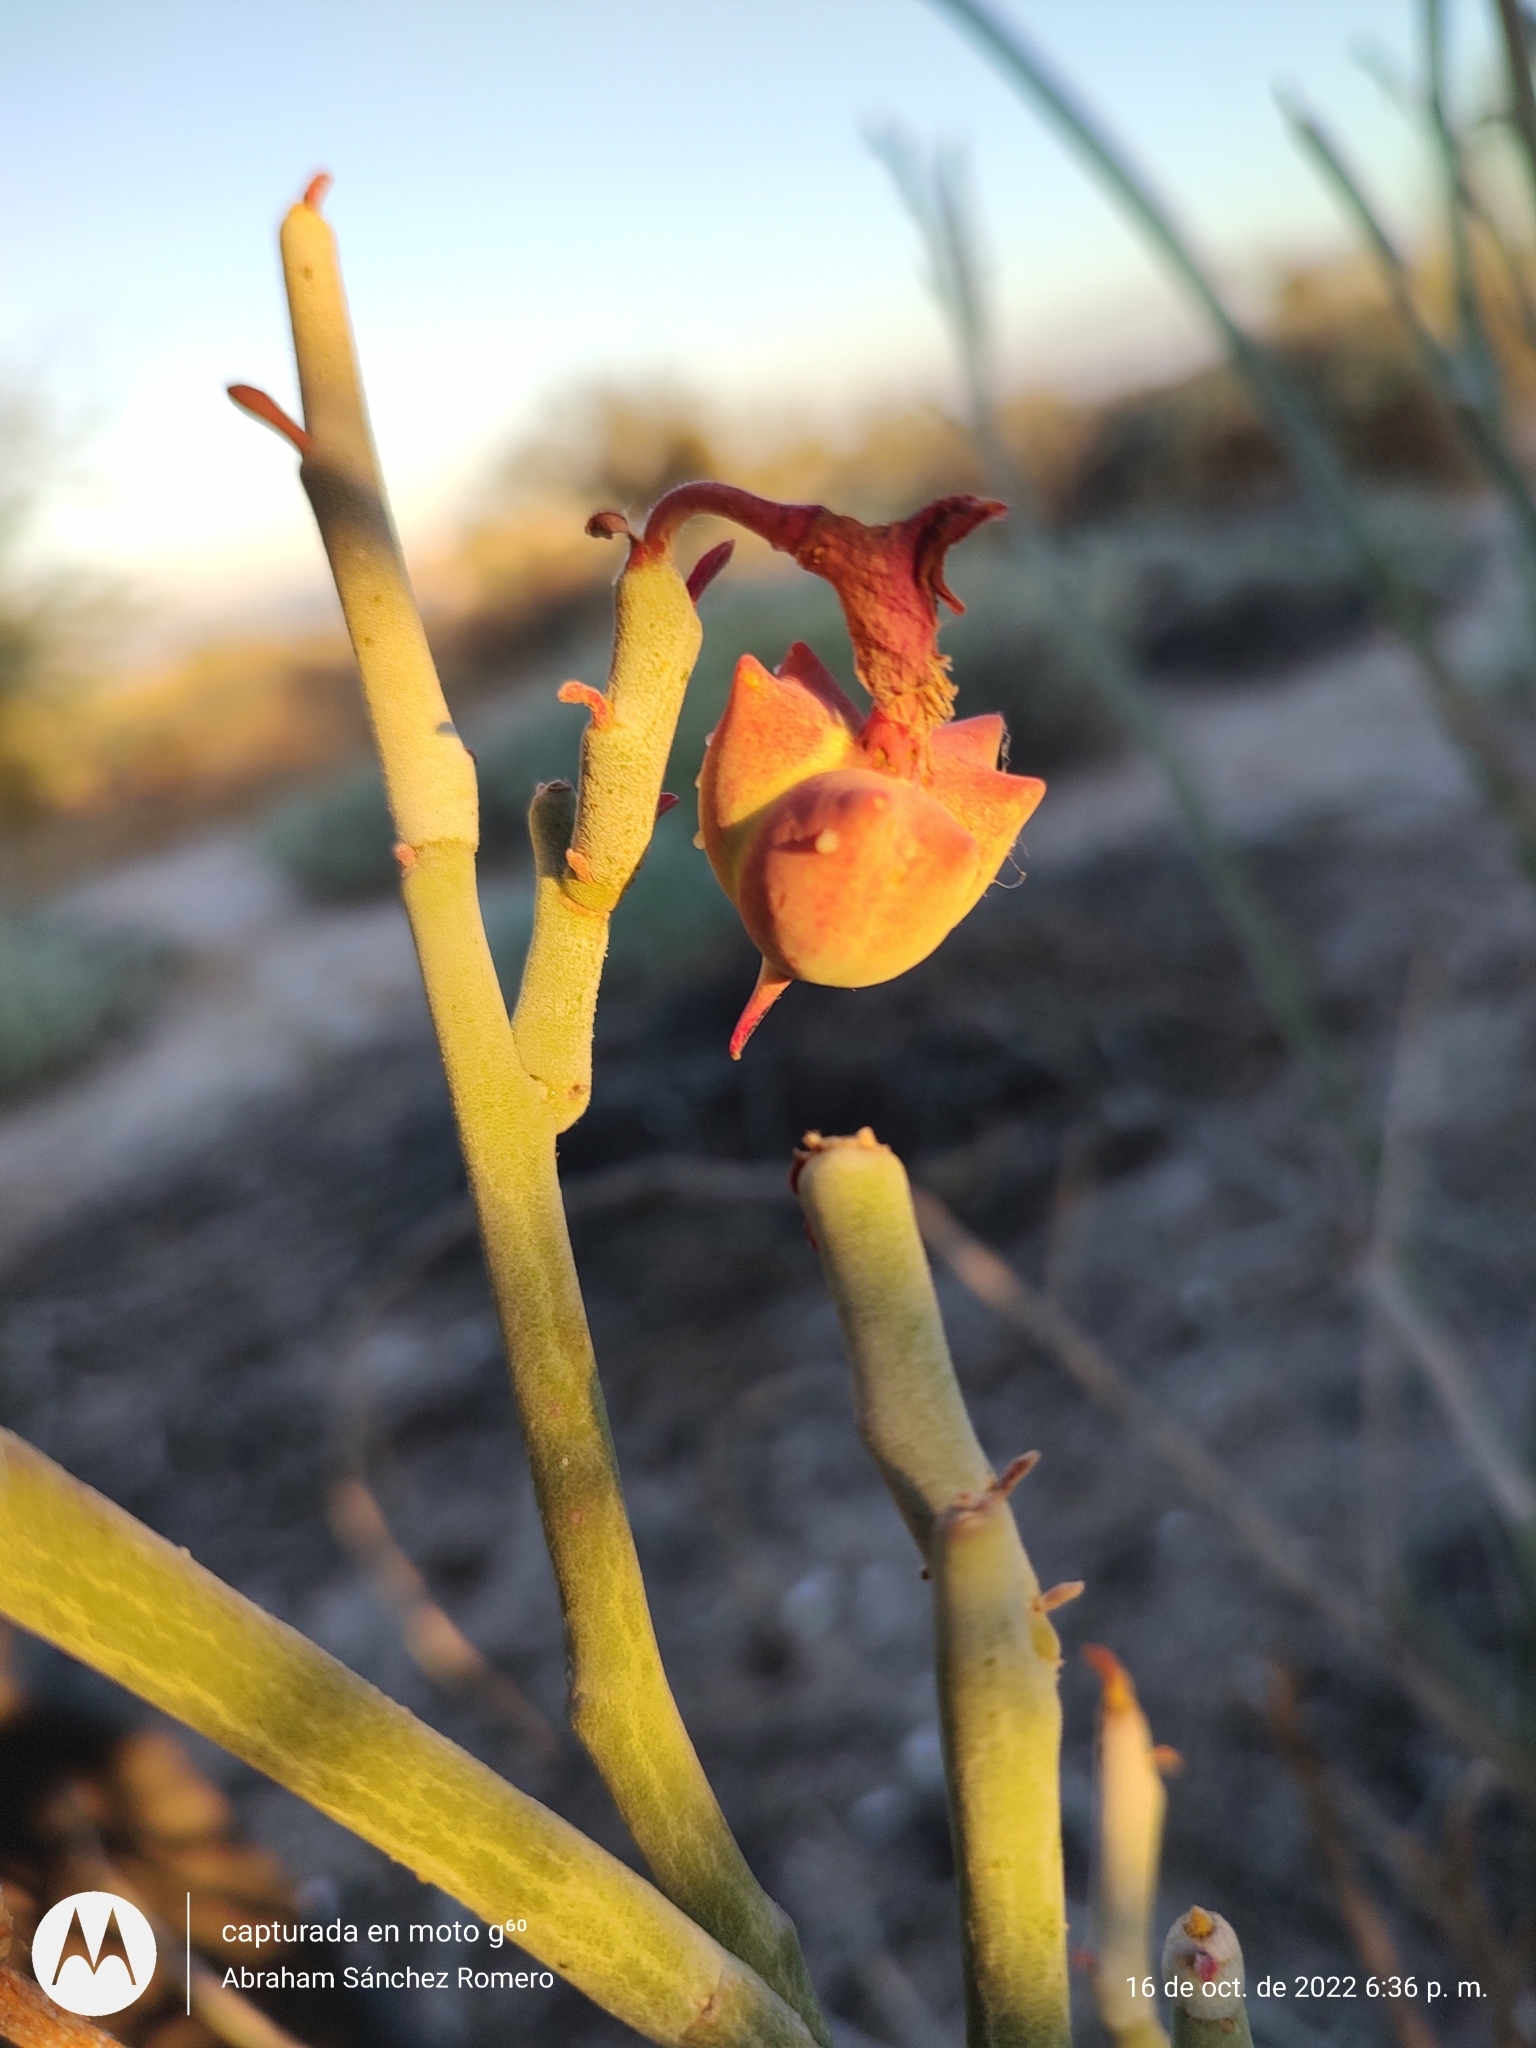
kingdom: Plantae
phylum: Tracheophyta
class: Magnoliopsida
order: Malpighiales
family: Euphorbiaceae
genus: Euphorbia
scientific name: Euphorbia lomelii
